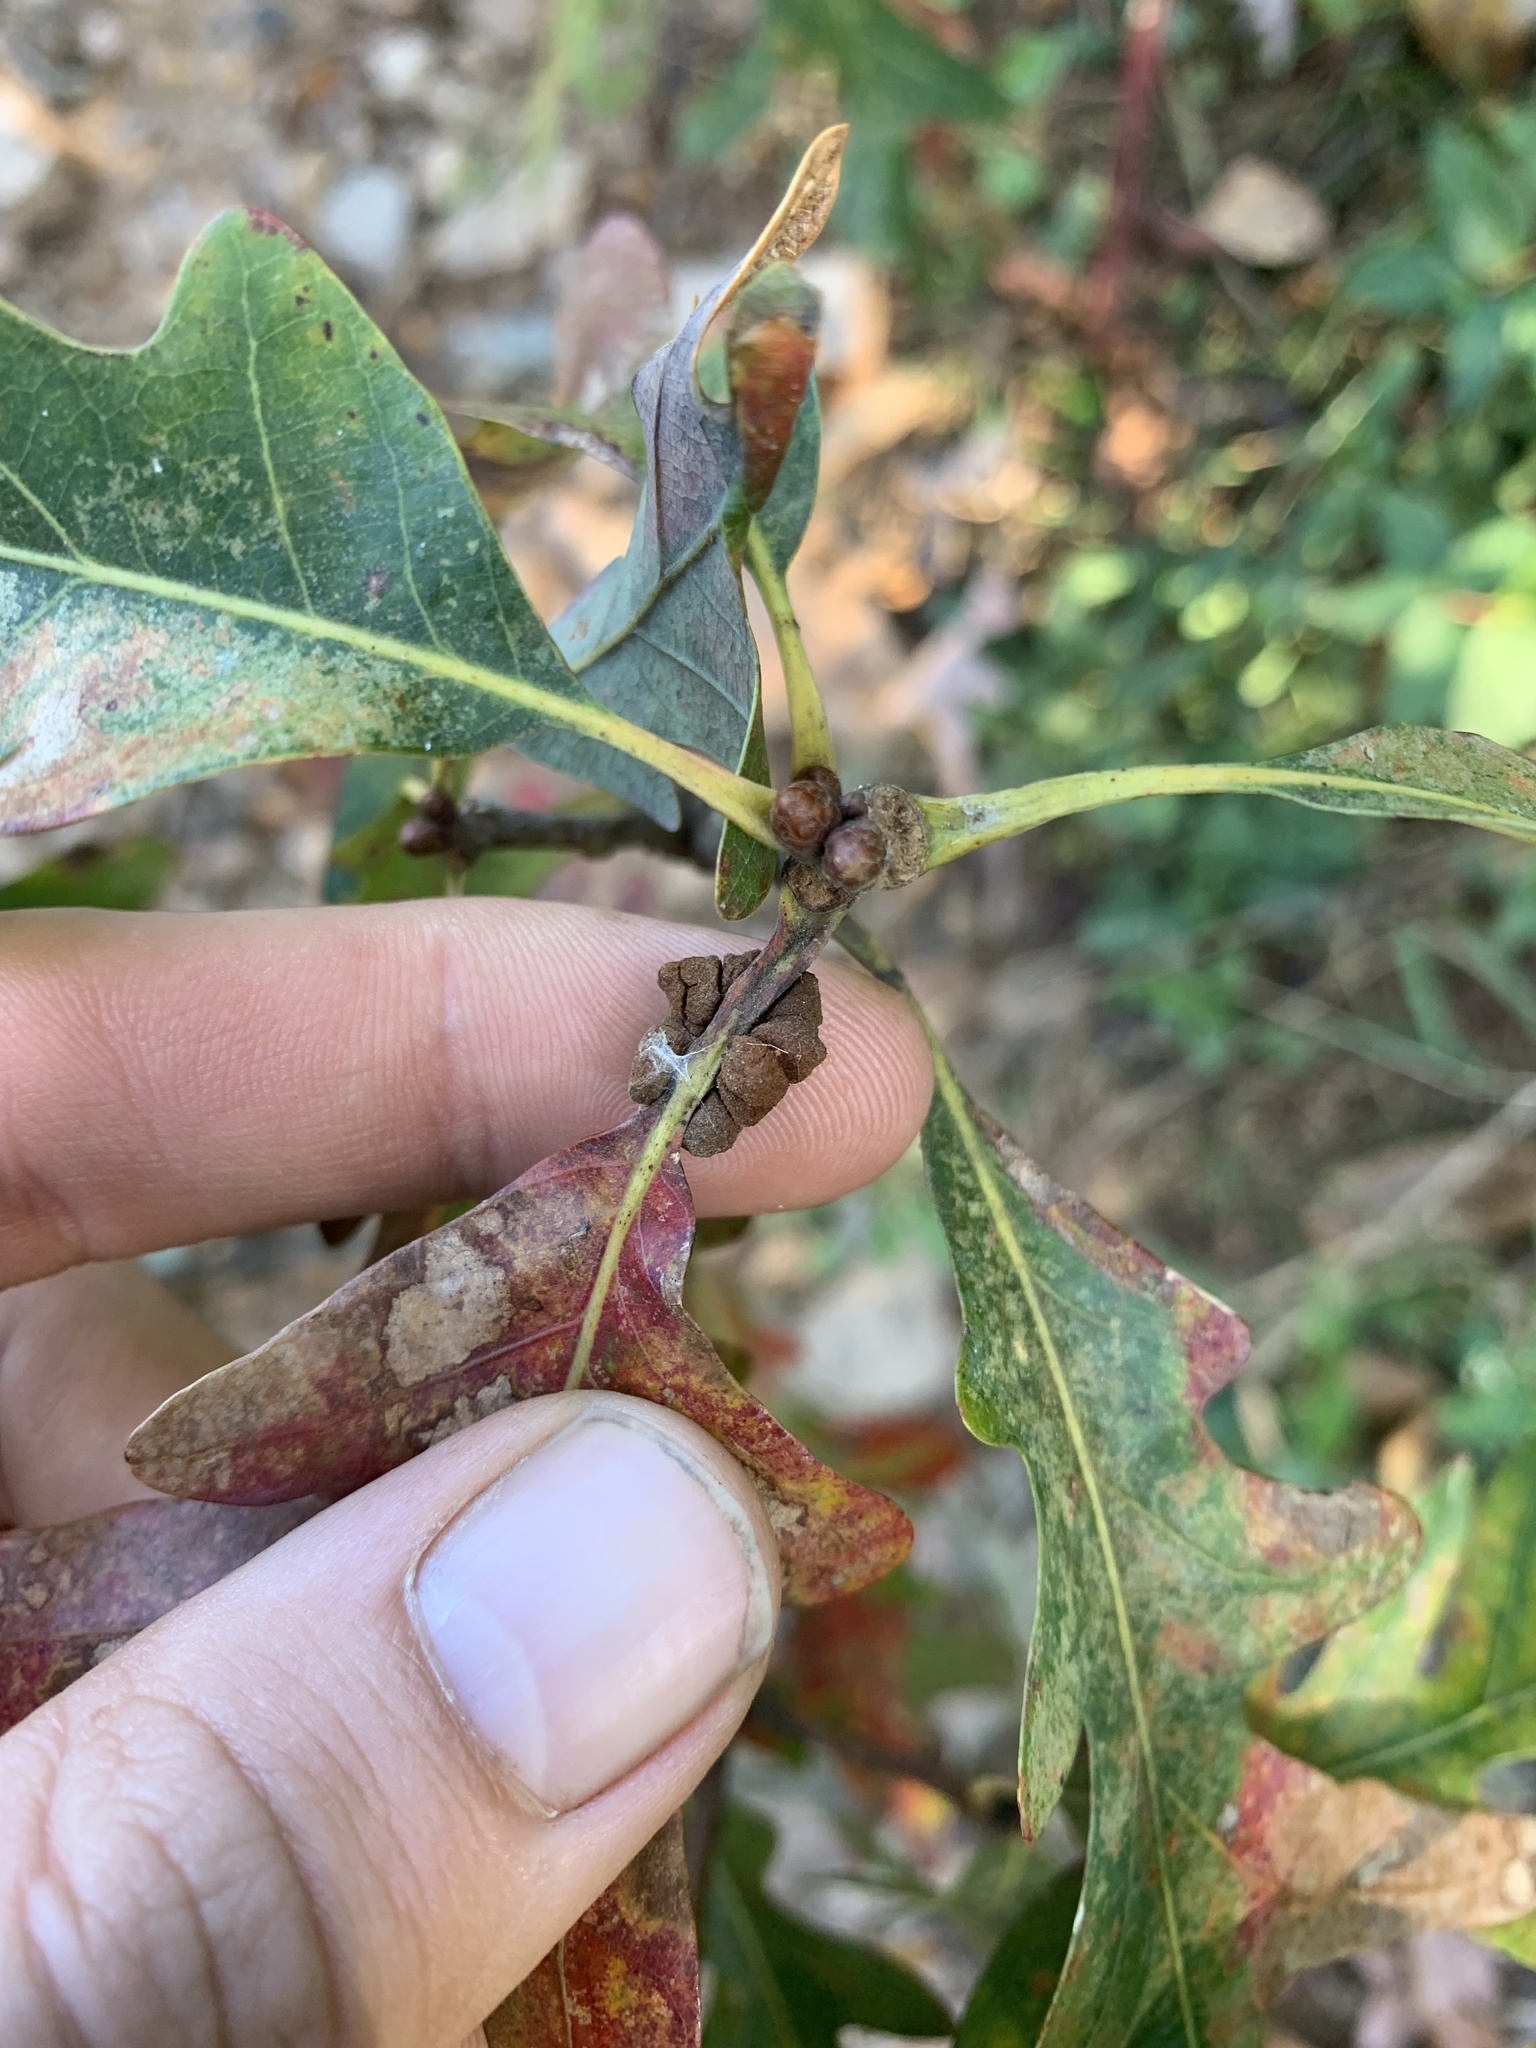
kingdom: Animalia
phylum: Arthropoda
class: Insecta
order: Hymenoptera
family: Cynipidae
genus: Andricus
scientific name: Andricus
